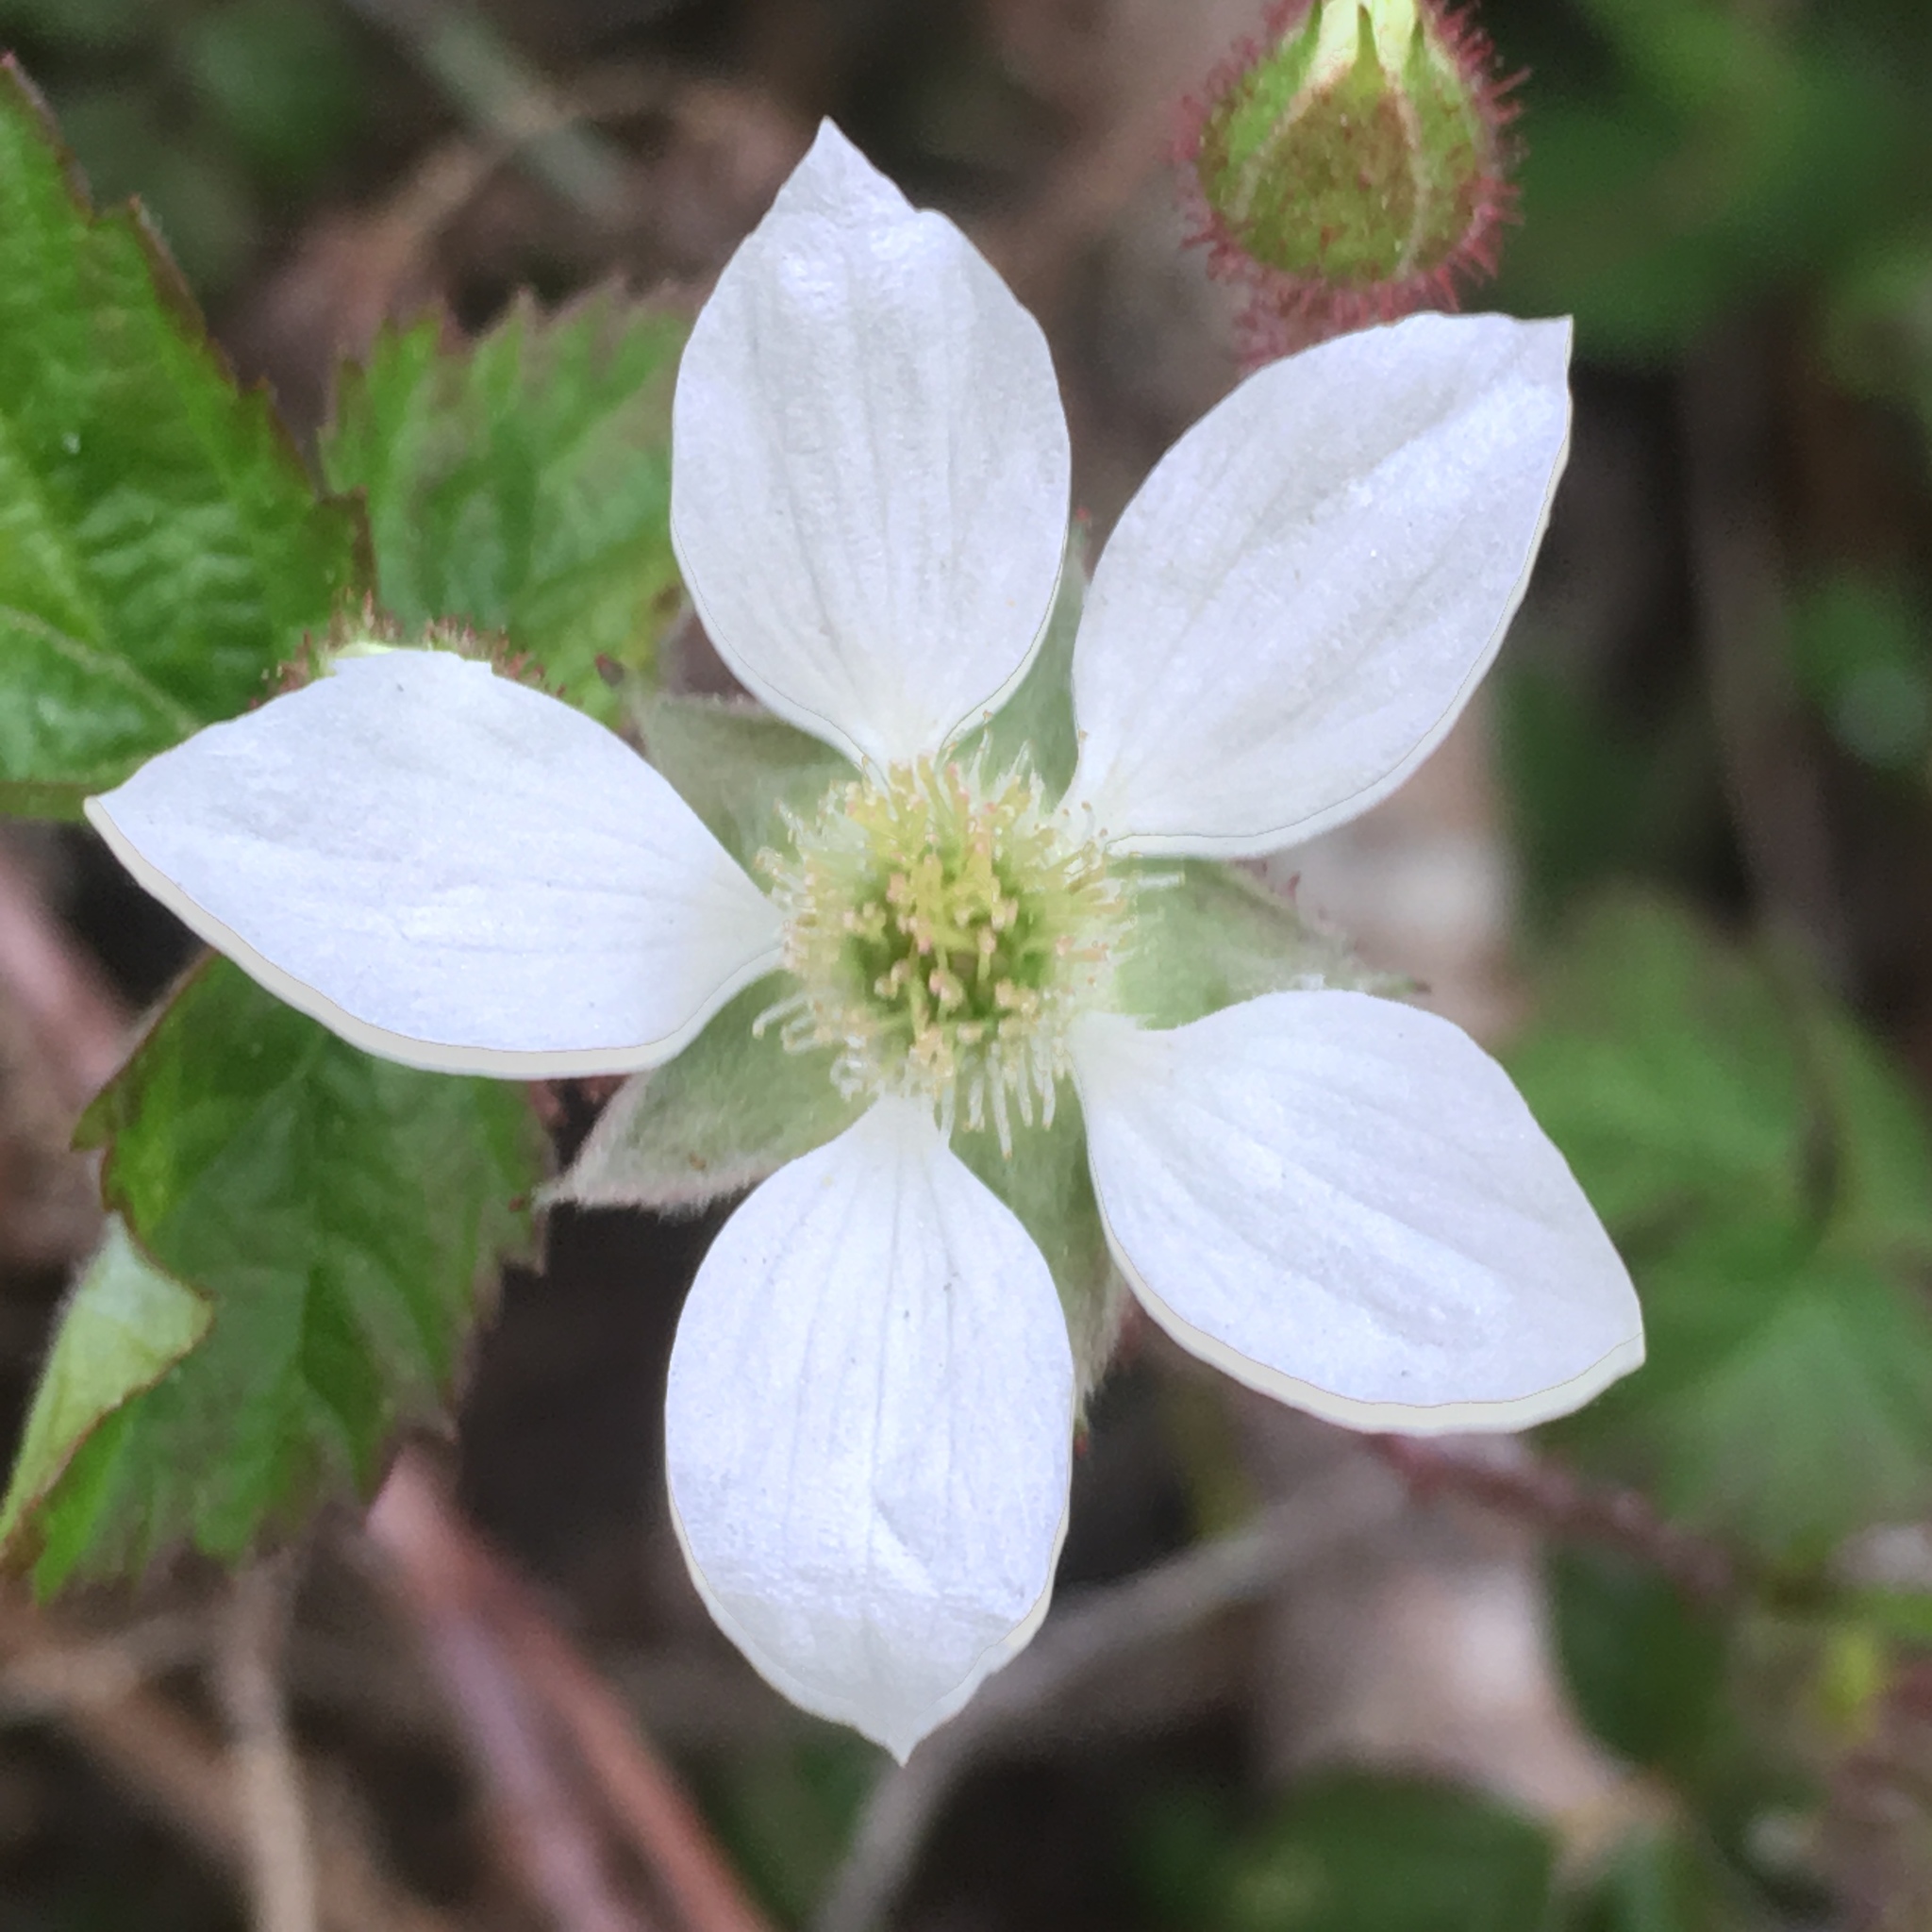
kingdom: Plantae
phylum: Tracheophyta
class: Magnoliopsida
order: Rosales
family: Rosaceae
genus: Rubus
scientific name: Rubus ursinus
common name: Pacific blackberry
